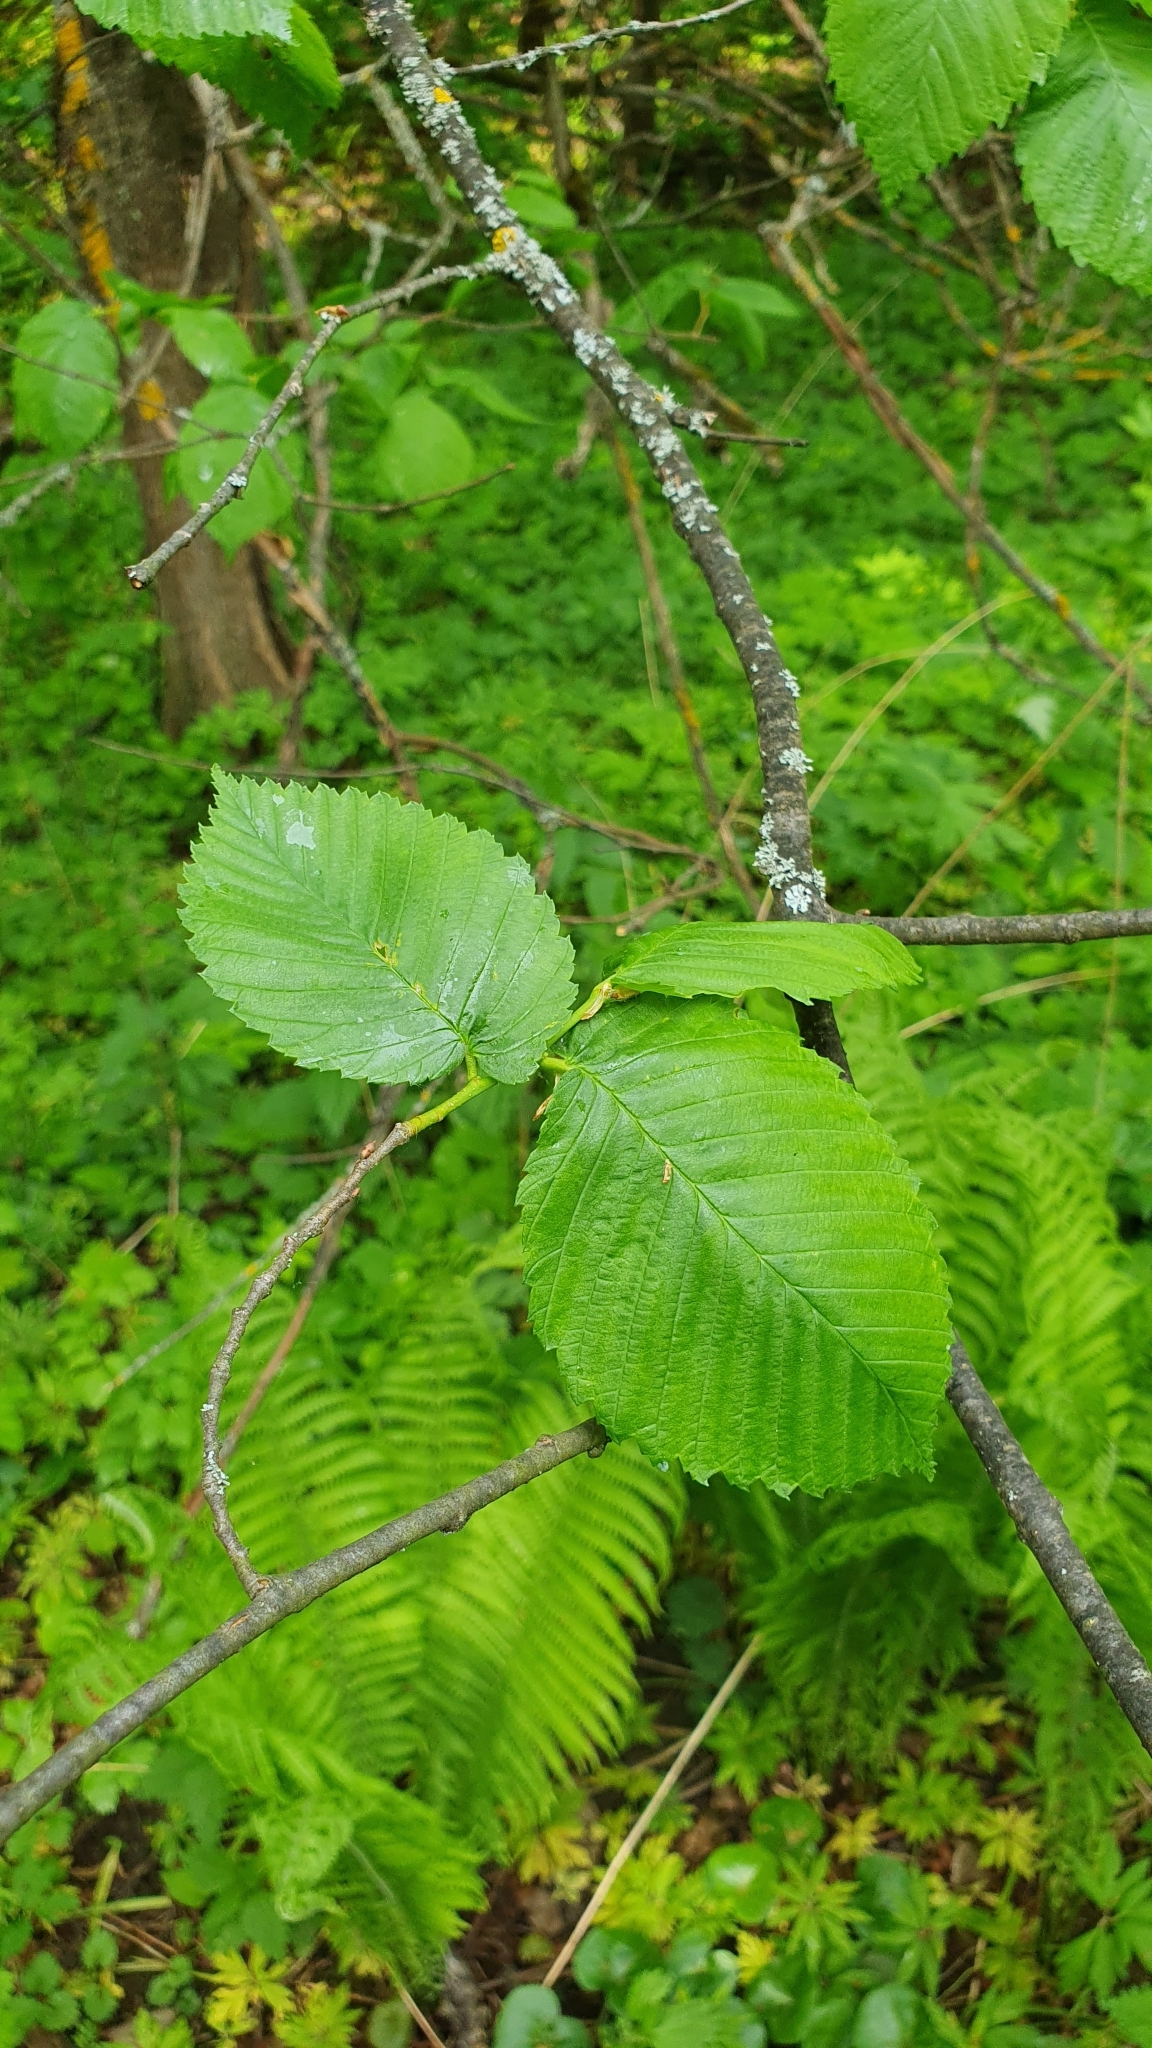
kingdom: Plantae
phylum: Tracheophyta
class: Magnoliopsida
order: Rosales
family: Ulmaceae
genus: Ulmus
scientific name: Ulmus laevis
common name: European white-elm
